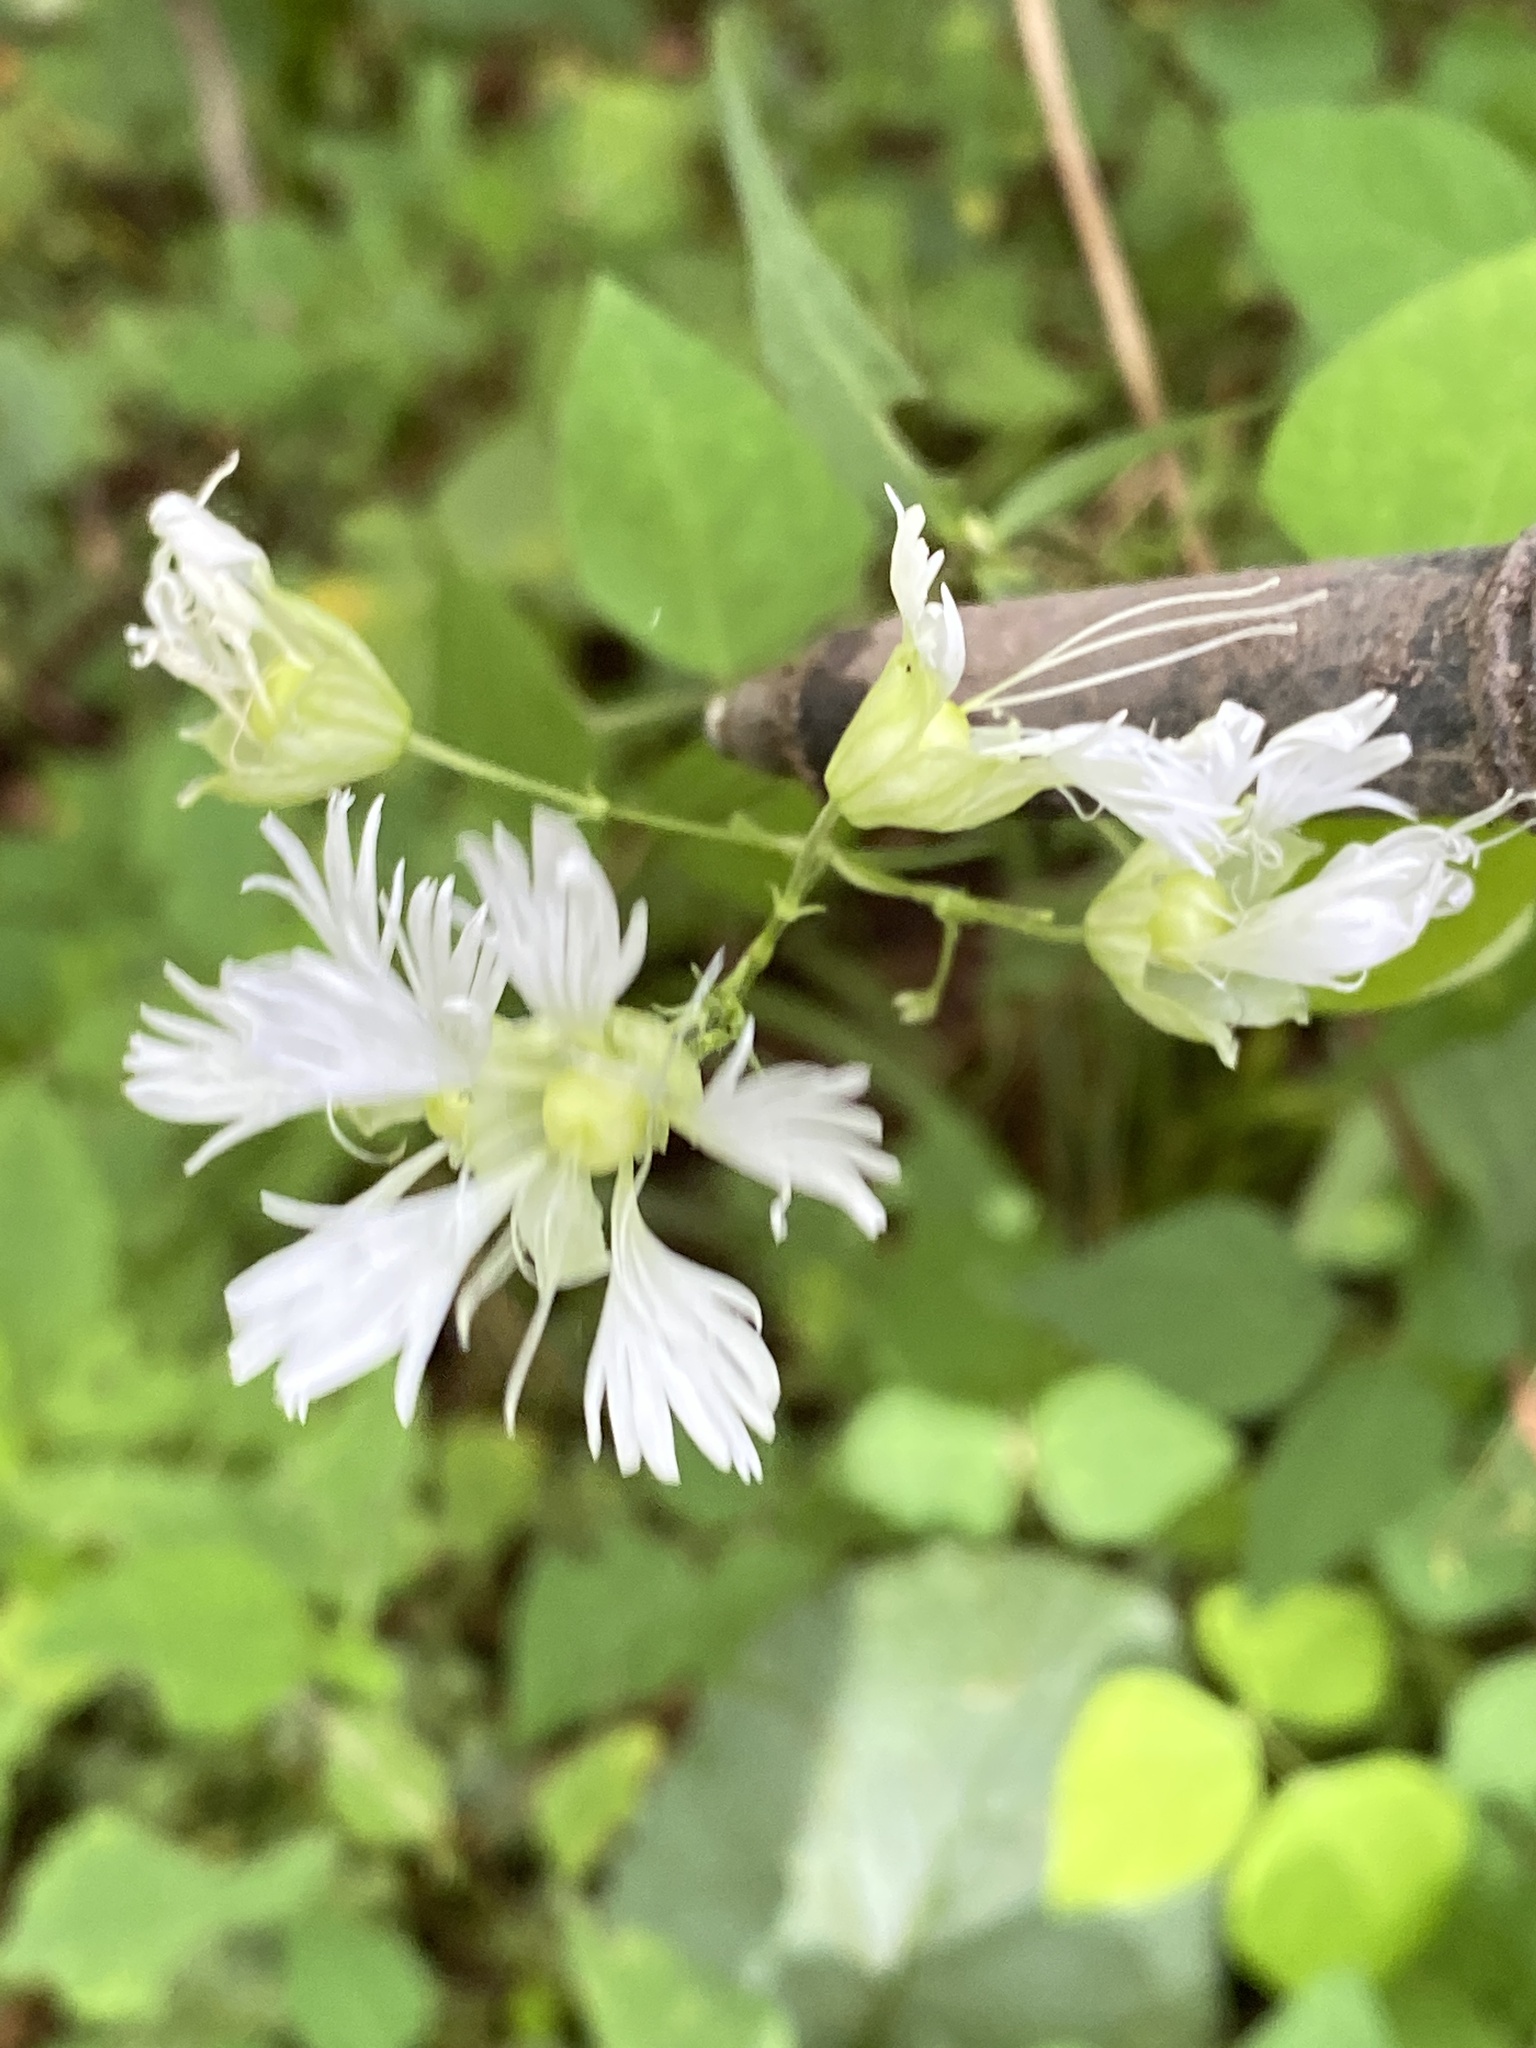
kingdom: Plantae
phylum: Tracheophyta
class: Magnoliopsida
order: Caryophyllales
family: Caryophyllaceae
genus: Silene
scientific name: Silene stellata
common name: Starry campion
